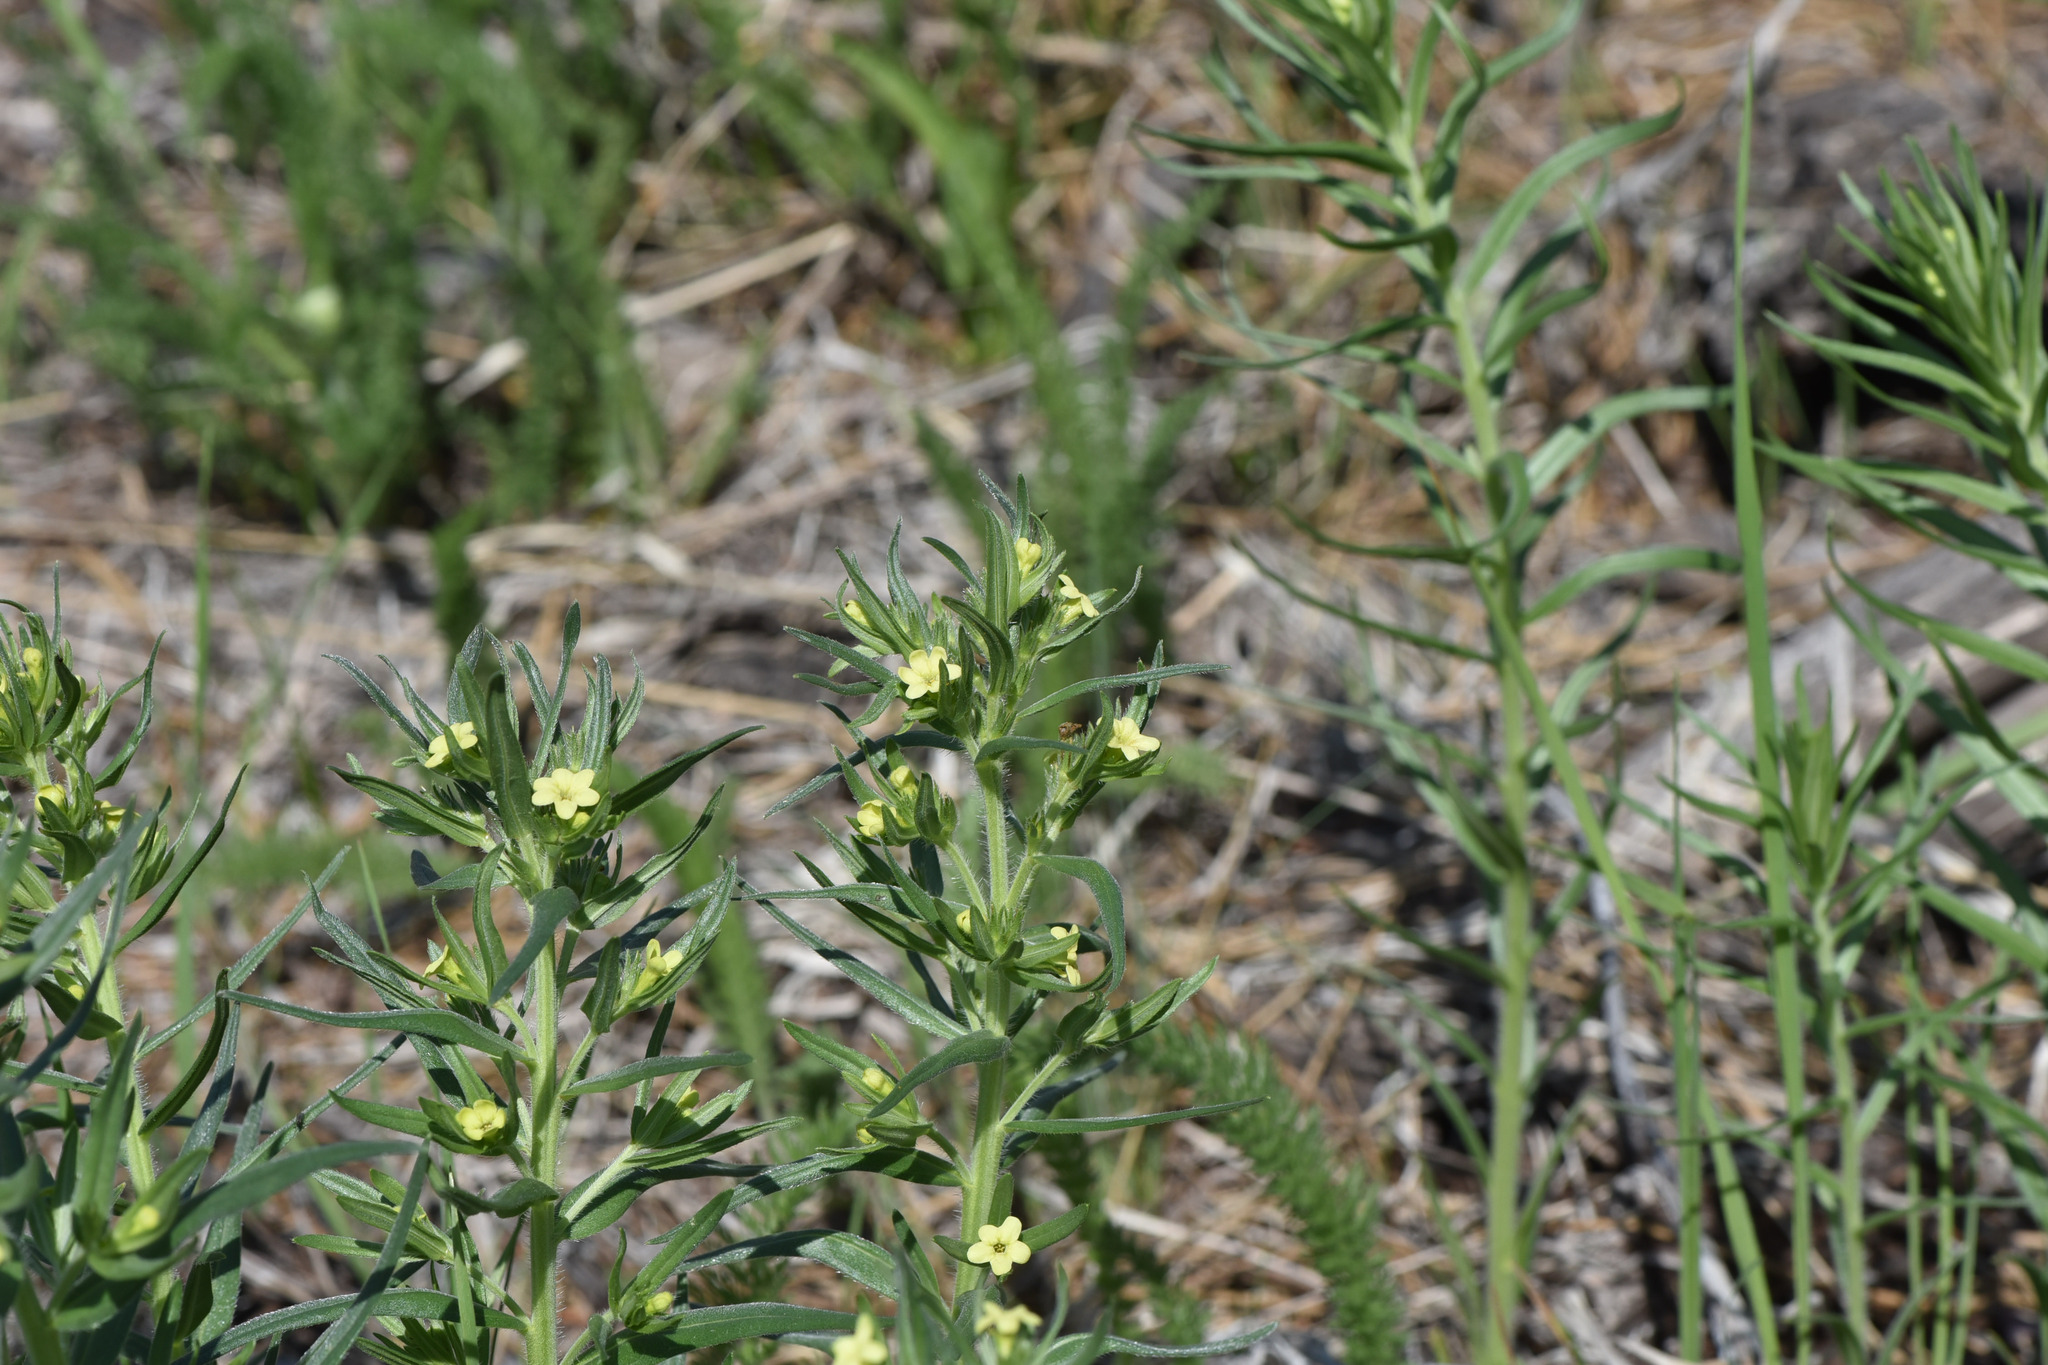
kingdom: Plantae
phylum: Tracheophyta
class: Magnoliopsida
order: Boraginales
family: Boraginaceae
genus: Lithospermum
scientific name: Lithospermum ruderale
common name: Western gromwell
